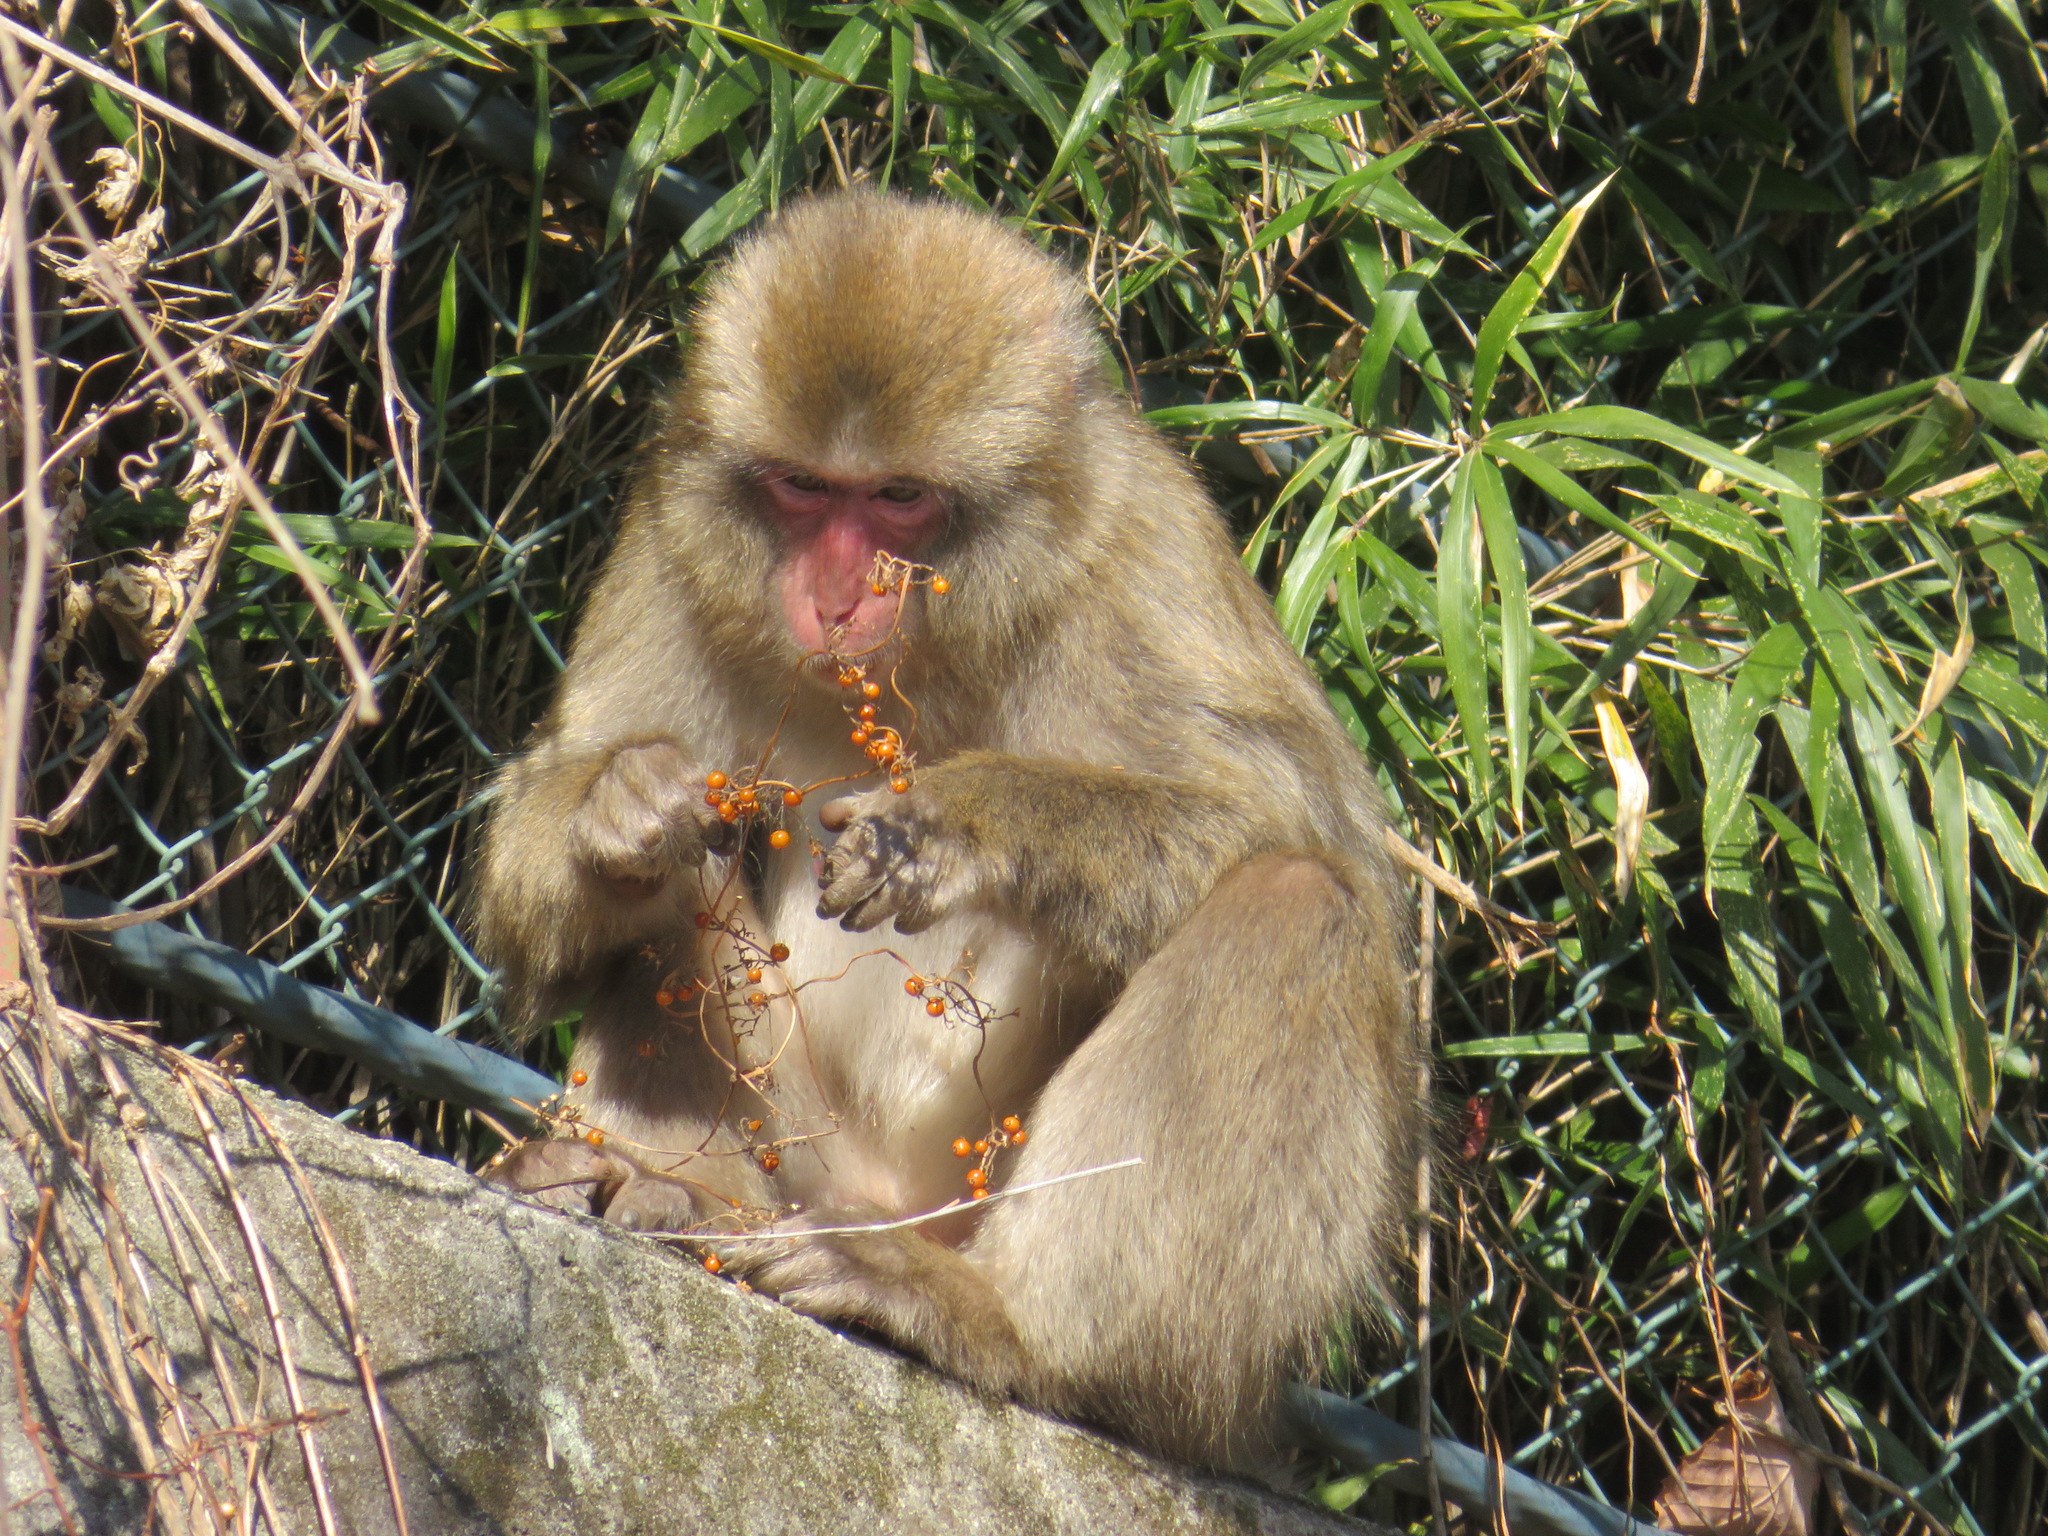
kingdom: Animalia
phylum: Chordata
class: Mammalia
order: Primates
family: Cercopithecidae
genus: Macaca
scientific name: Macaca fuscata
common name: Japanese macaque
